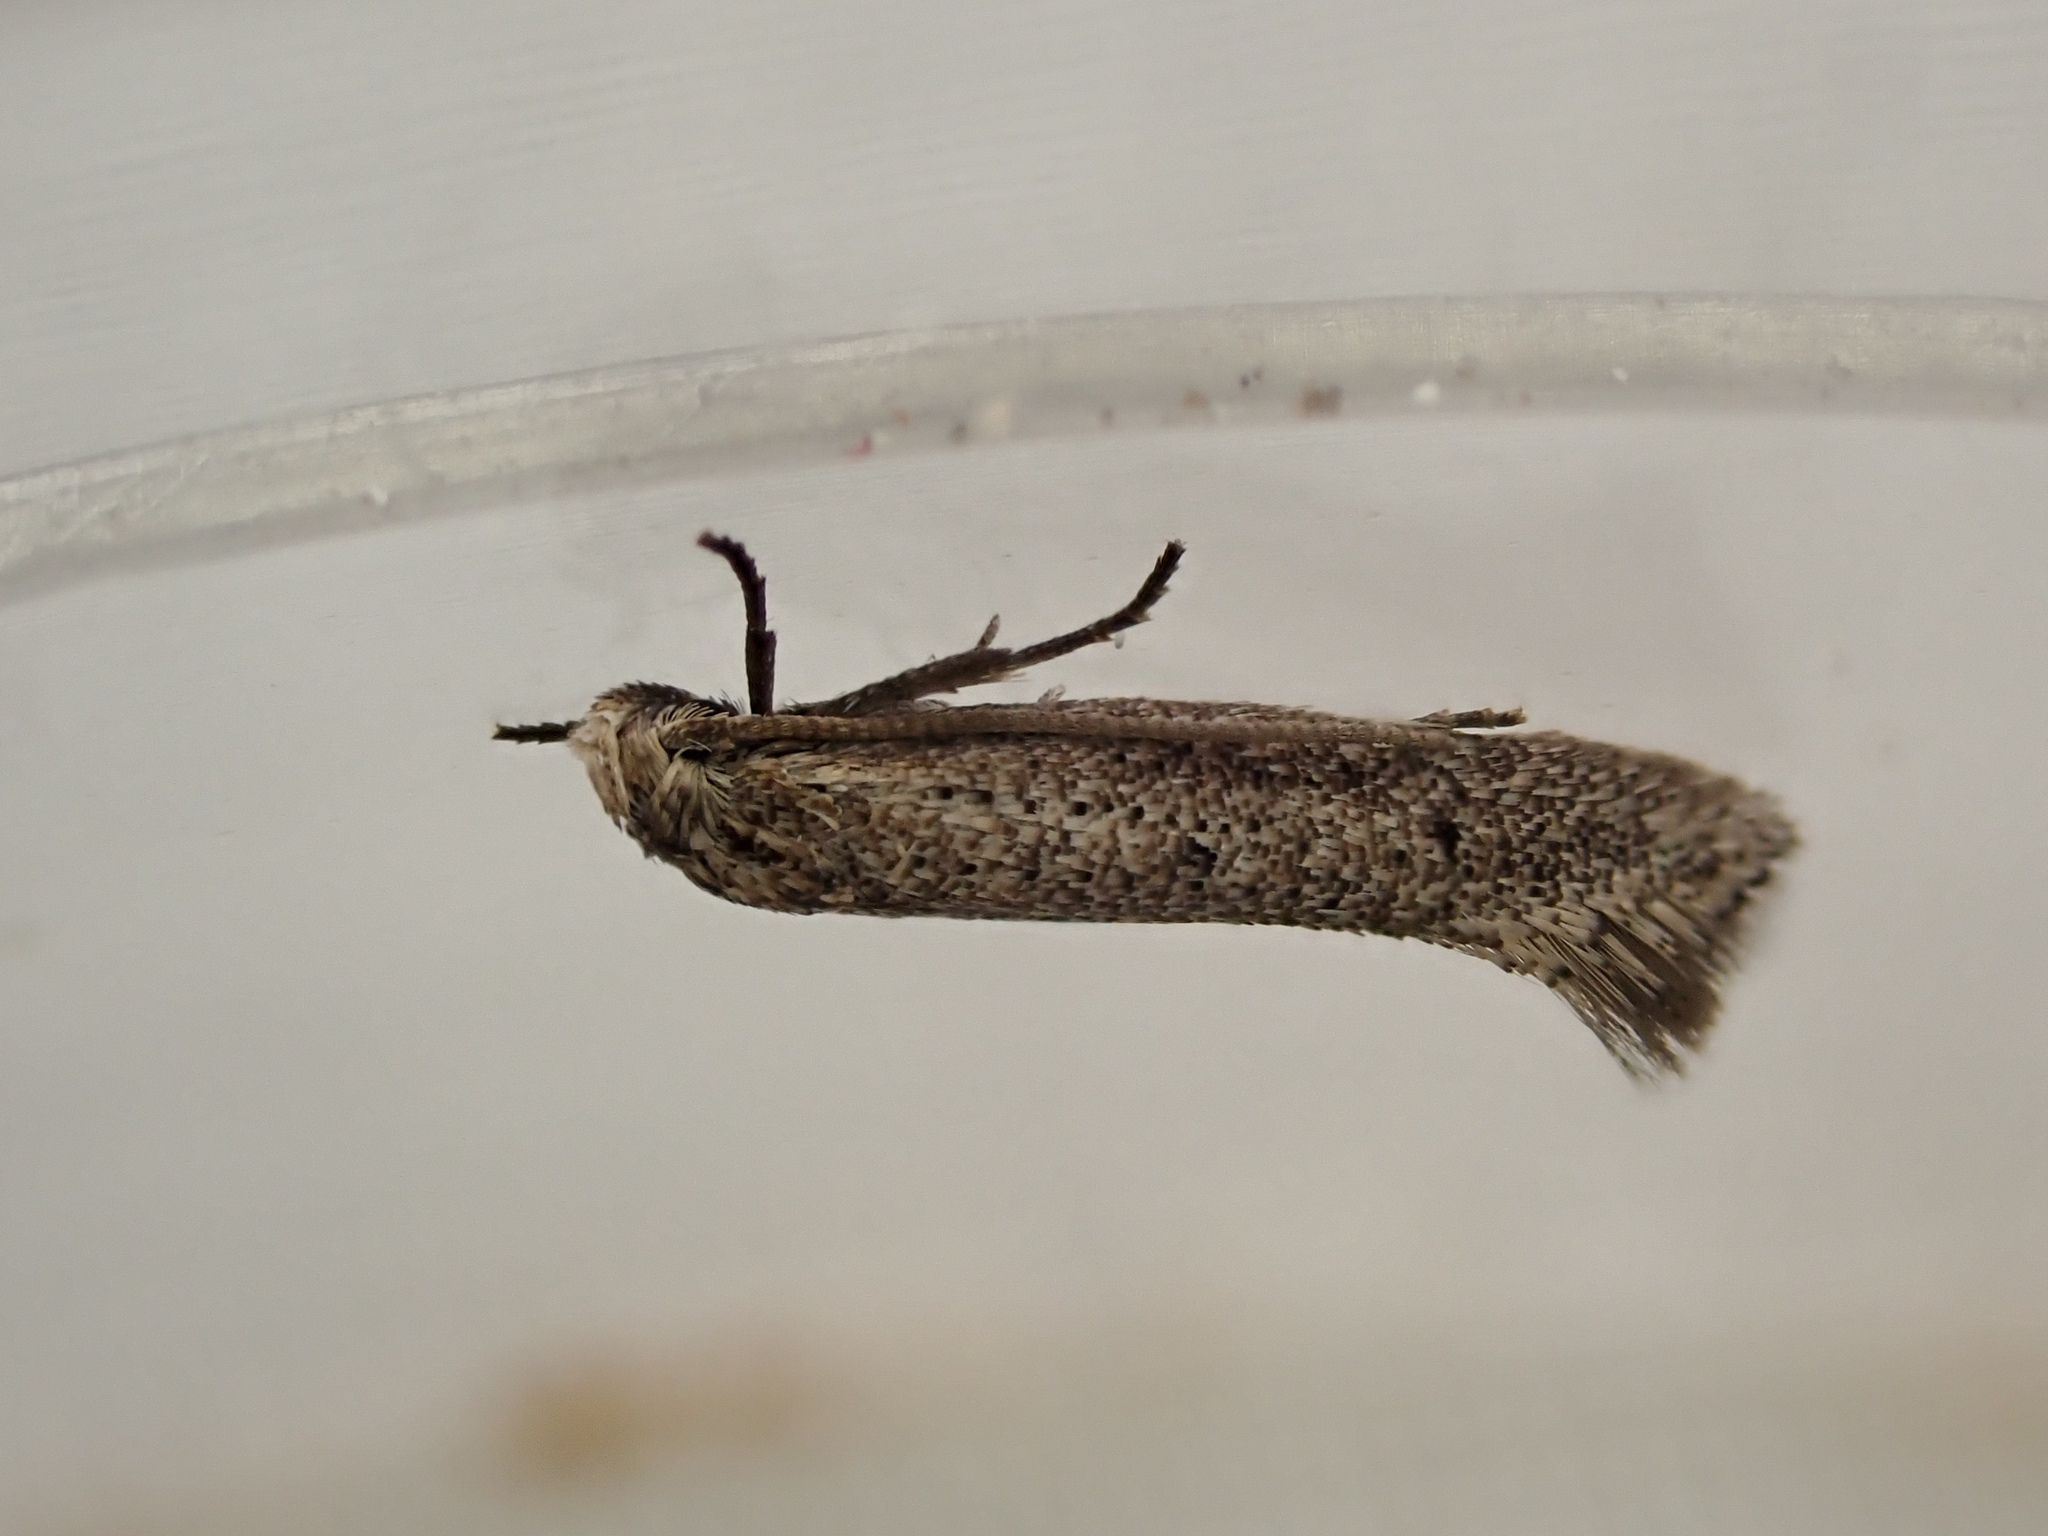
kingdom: Animalia
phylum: Arthropoda
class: Insecta
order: Lepidoptera
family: Elachistidae
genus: Elachista
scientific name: Elachista physalodes
